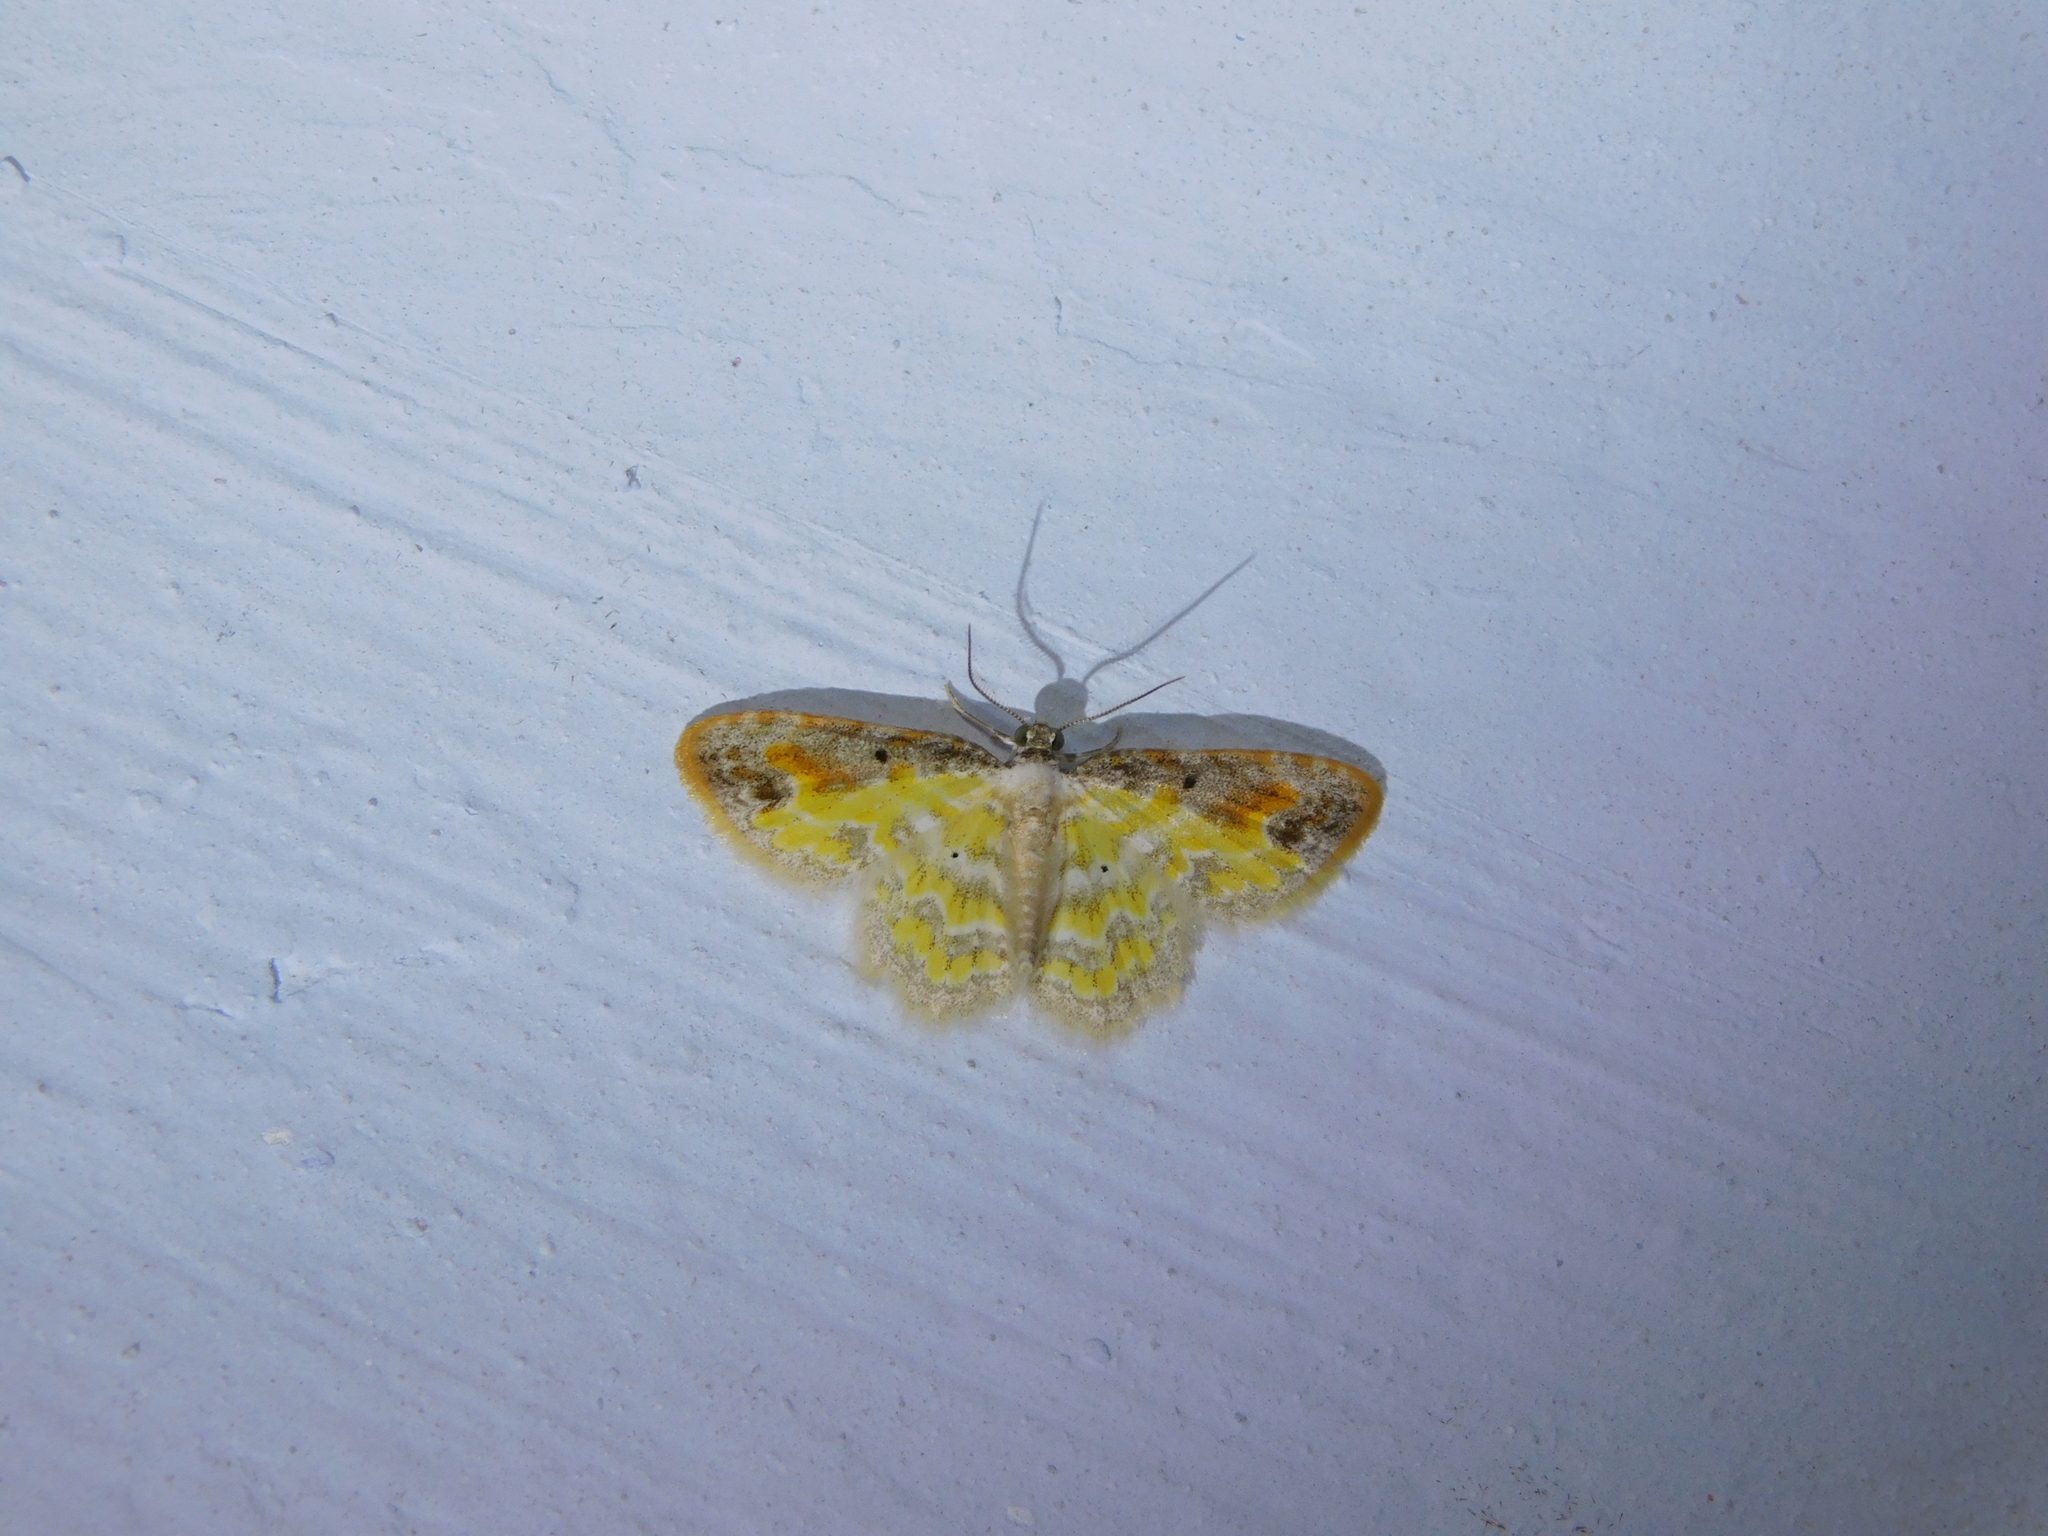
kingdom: Animalia
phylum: Arthropoda
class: Insecta
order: Lepidoptera
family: Geometridae
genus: Acolutha
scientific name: Acolutha pictaria
